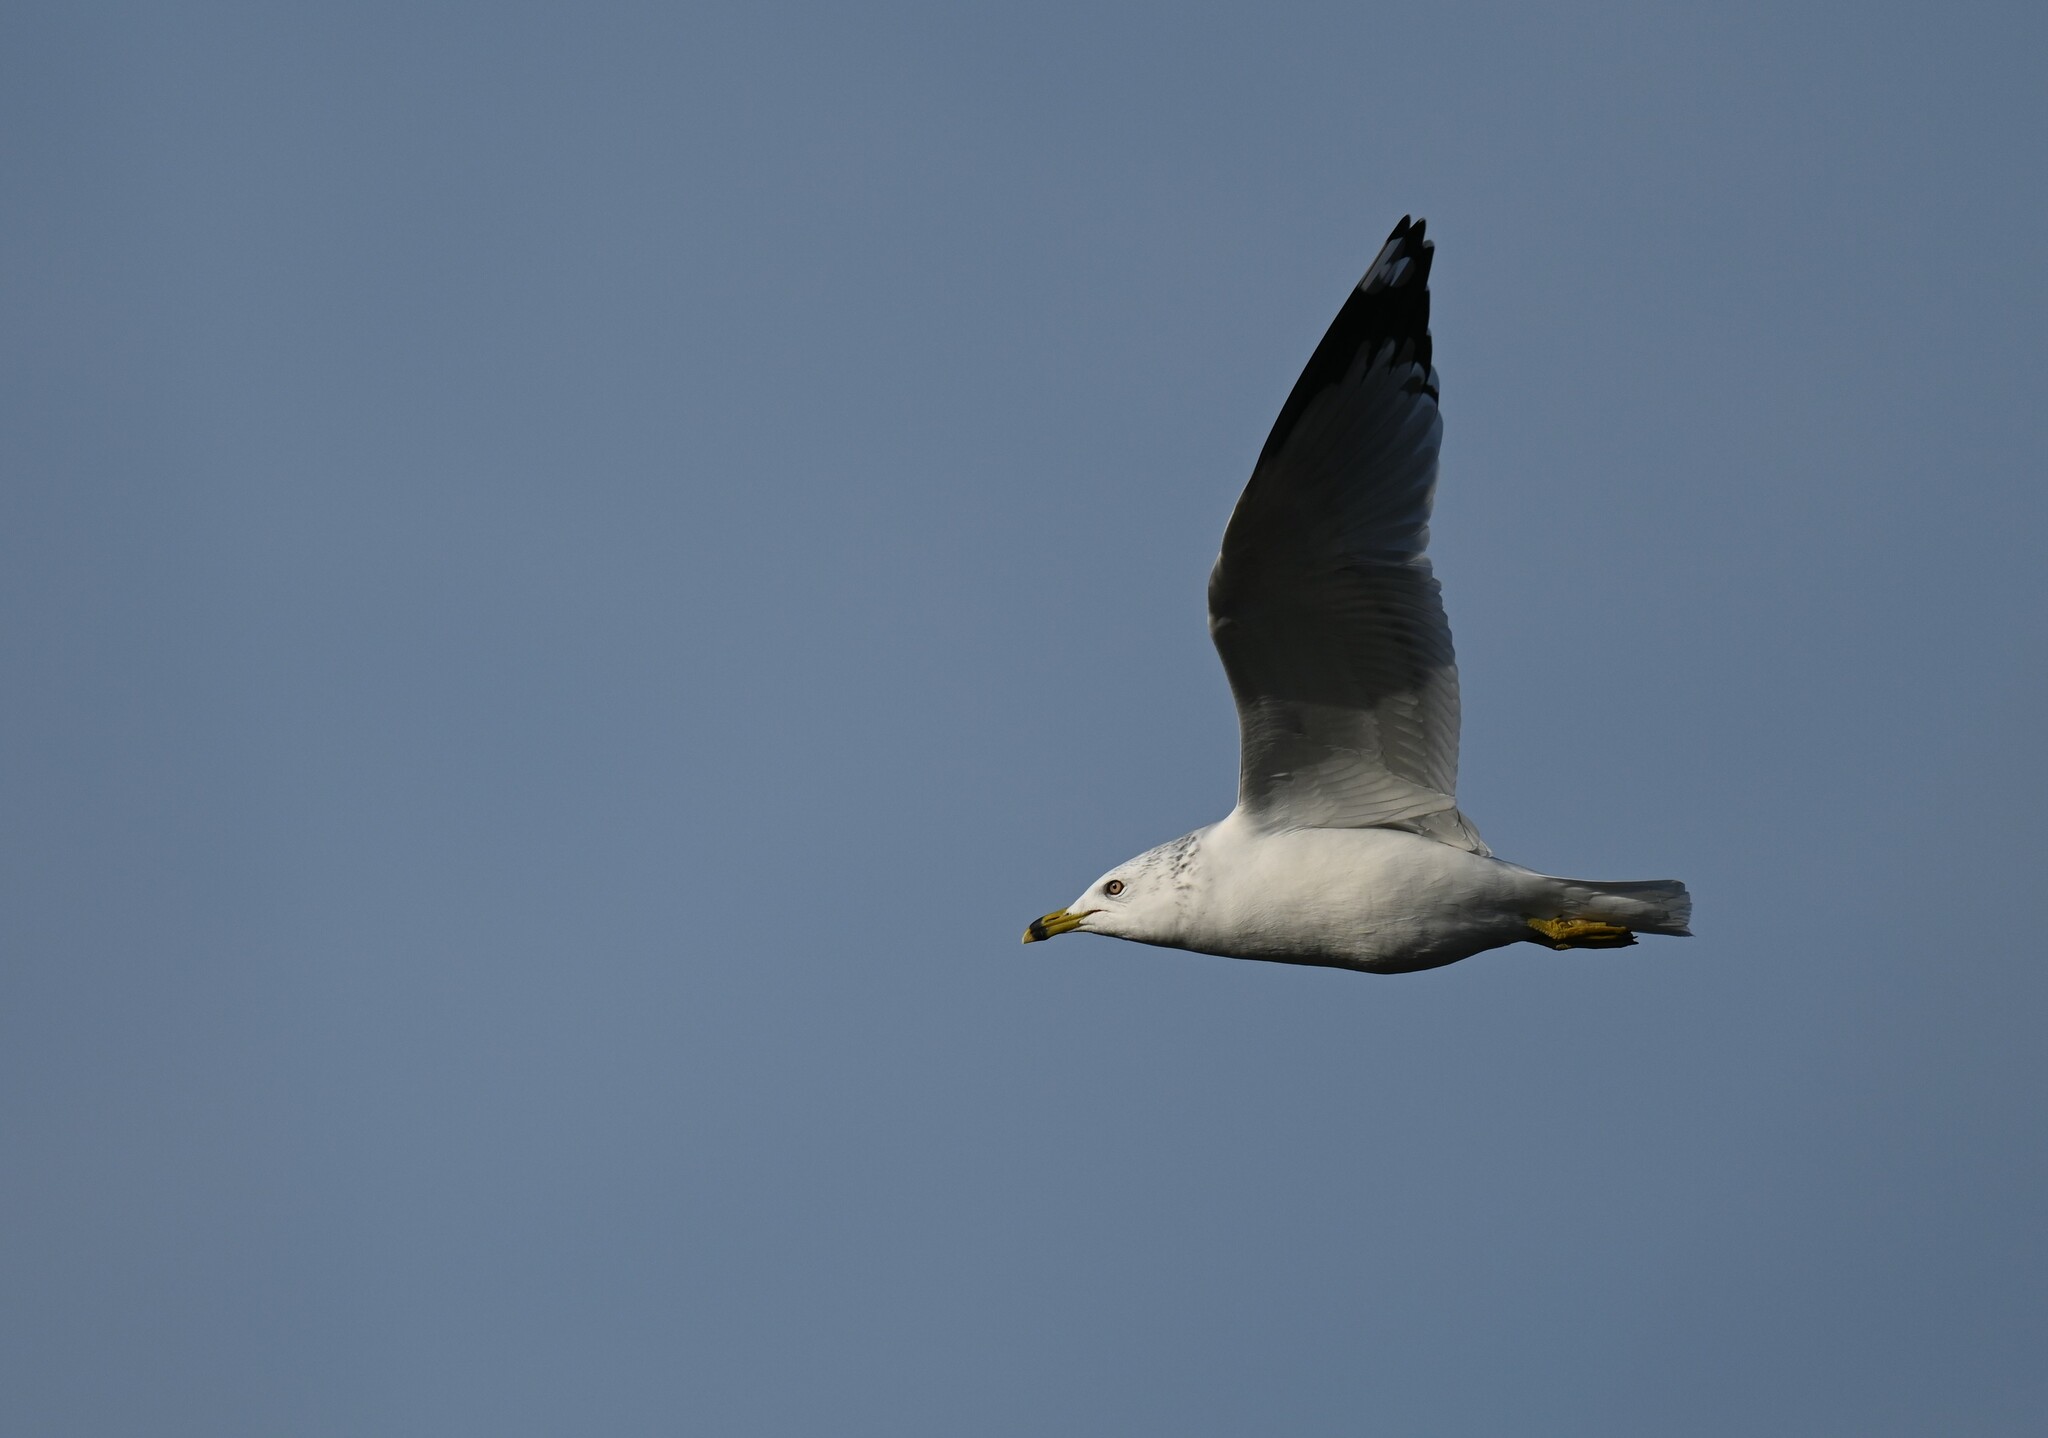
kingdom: Animalia
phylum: Chordata
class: Aves
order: Charadriiformes
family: Laridae
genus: Larus
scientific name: Larus delawarensis
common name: Ring-billed gull
